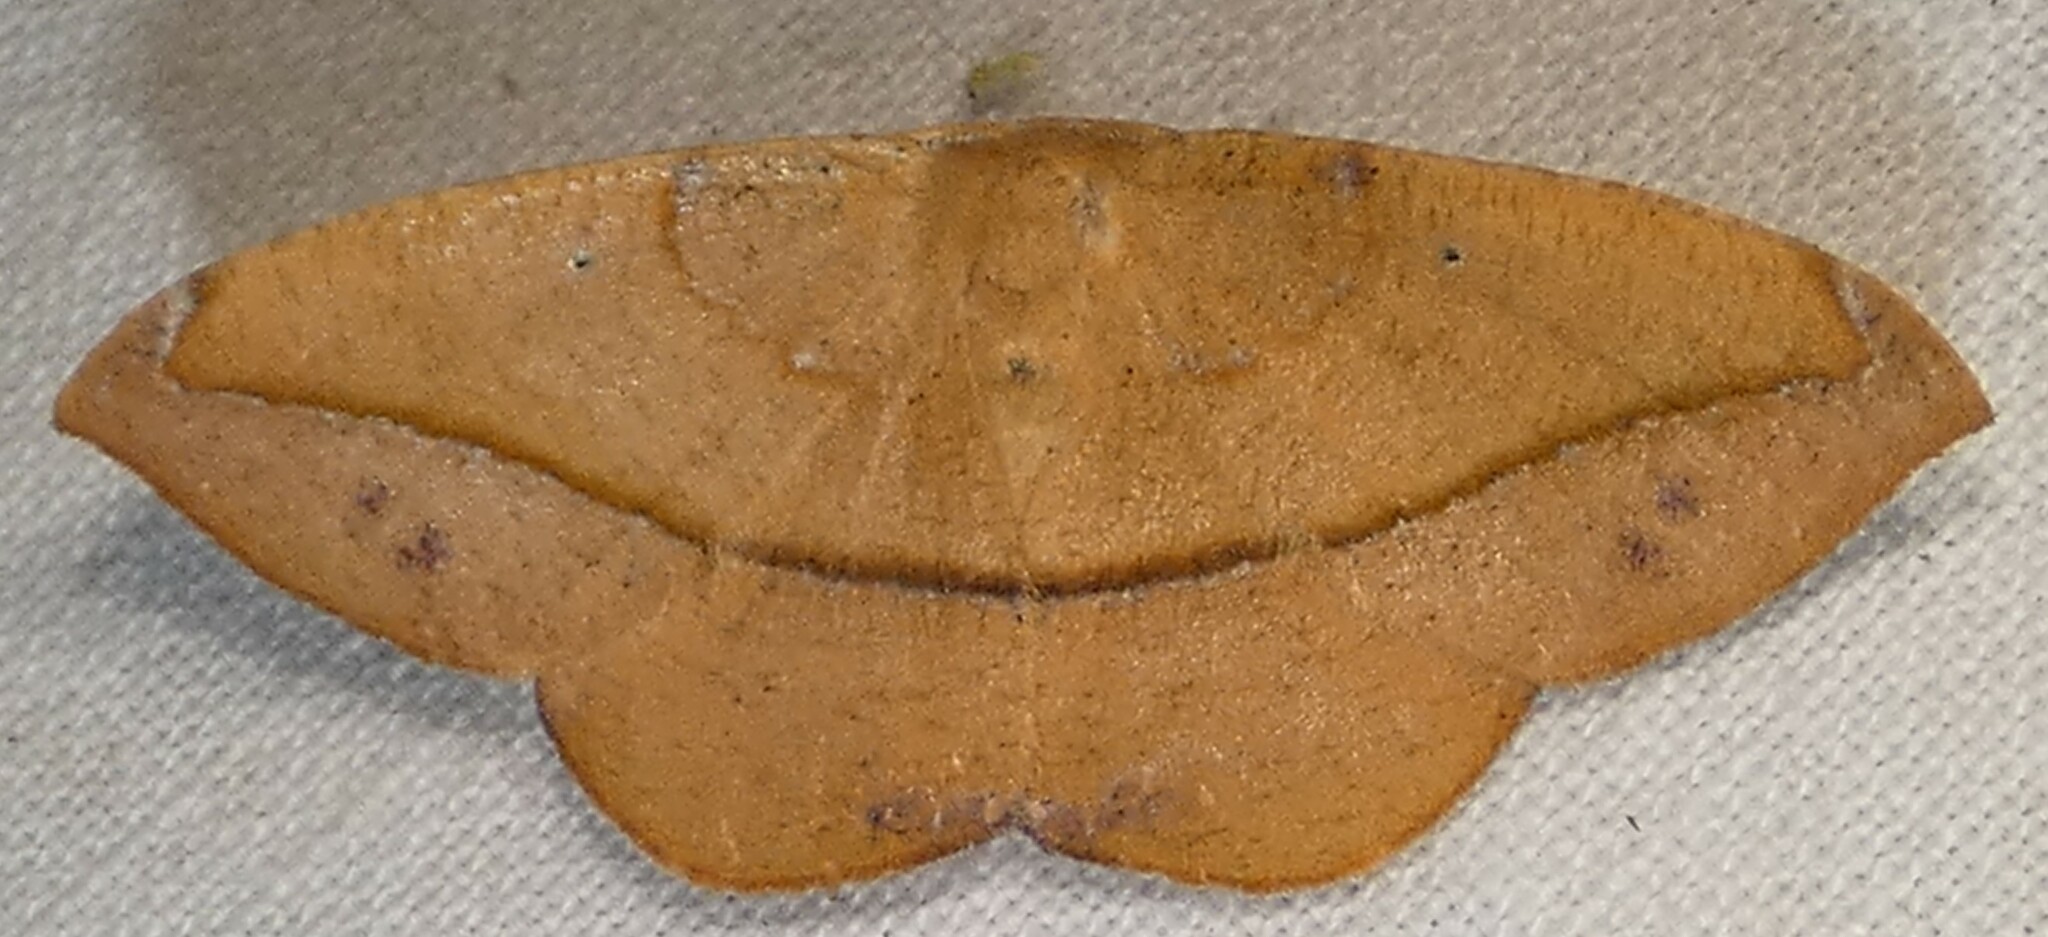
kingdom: Animalia
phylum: Arthropoda
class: Insecta
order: Lepidoptera
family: Geometridae
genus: Patalene
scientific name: Patalene olyzonaria
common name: Juniper geometer moth
